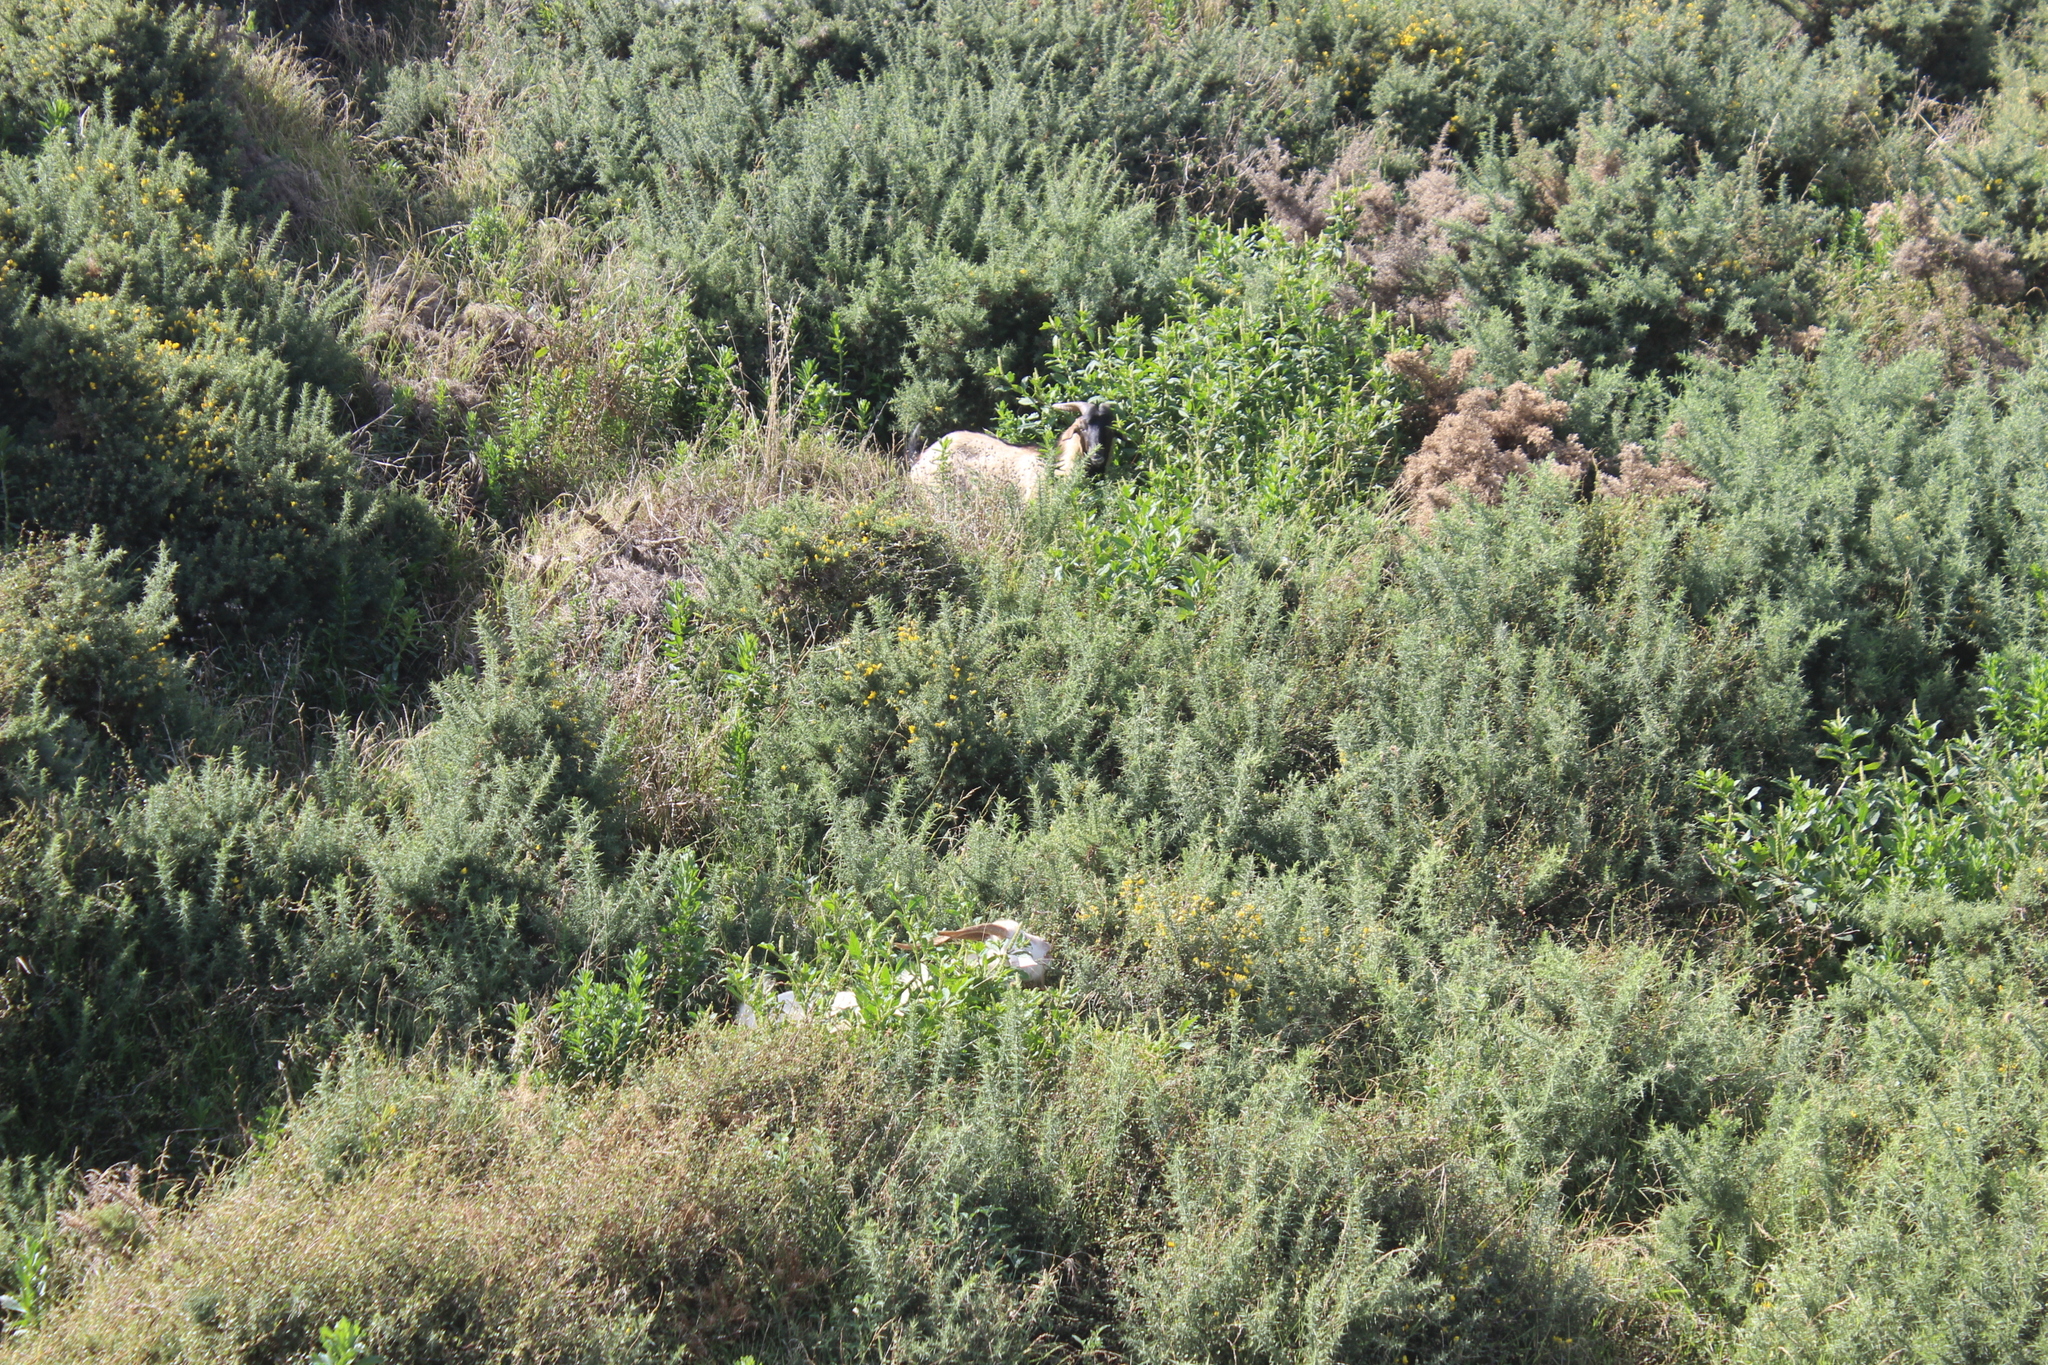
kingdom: Animalia
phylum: Chordata
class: Mammalia
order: Artiodactyla
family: Bovidae
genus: Capra
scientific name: Capra hircus
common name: Domestic goat
